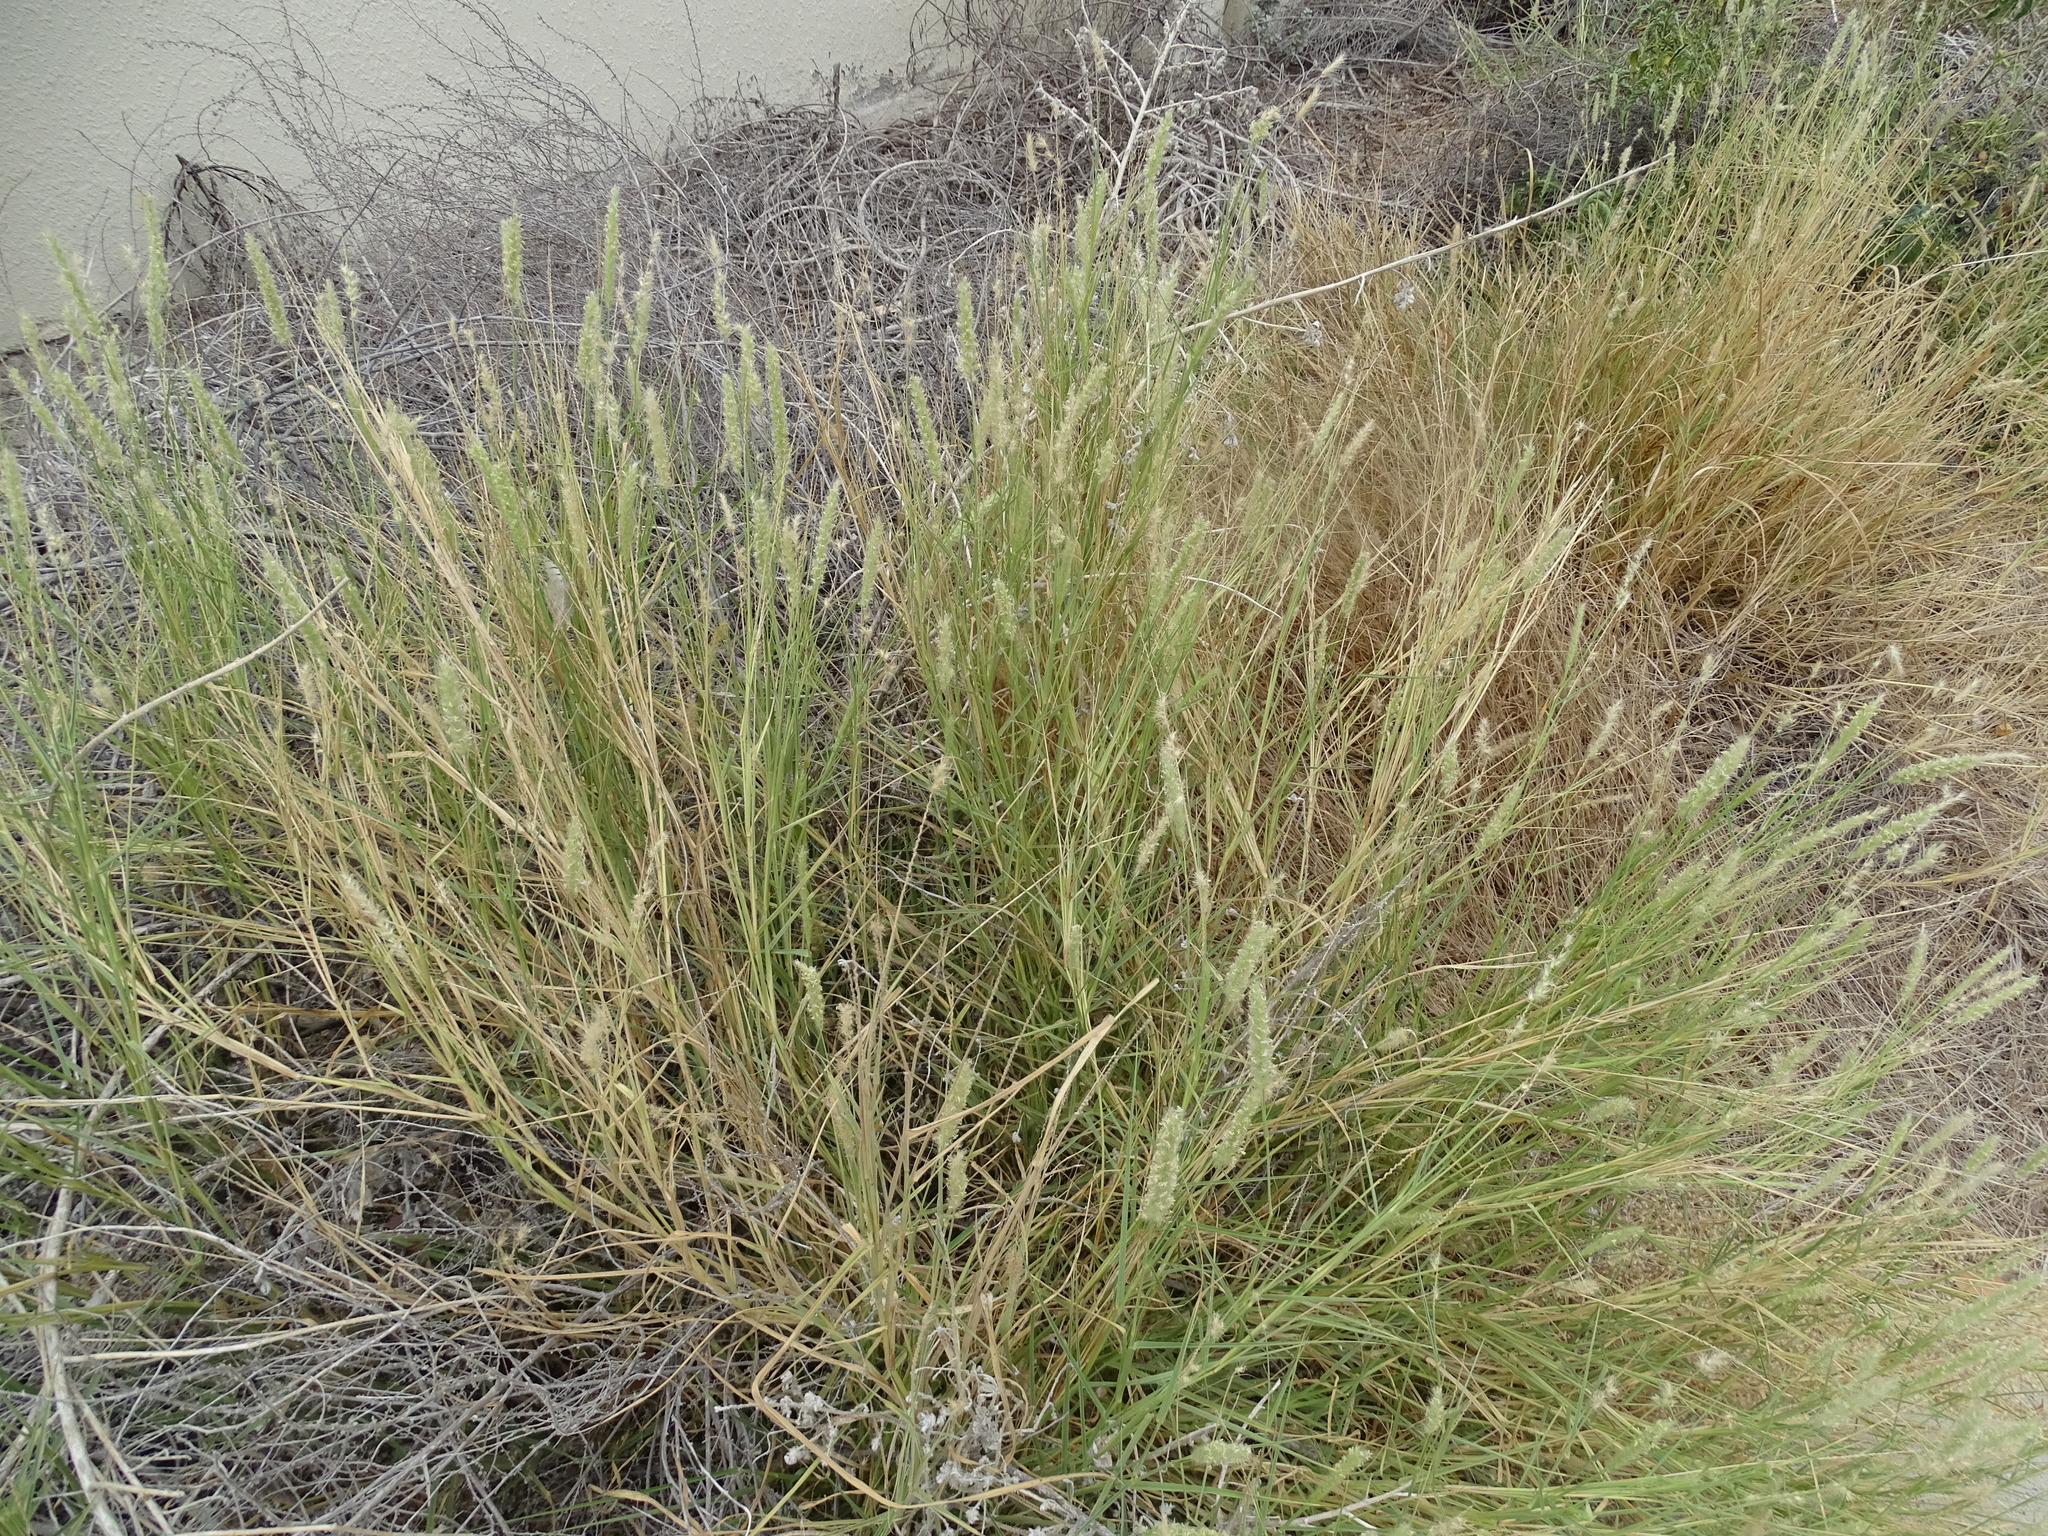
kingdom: Plantae
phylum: Tracheophyta
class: Liliopsida
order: Poales
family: Poaceae
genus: Cenchrus
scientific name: Cenchrus ciliaris
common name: Buffelgrass
